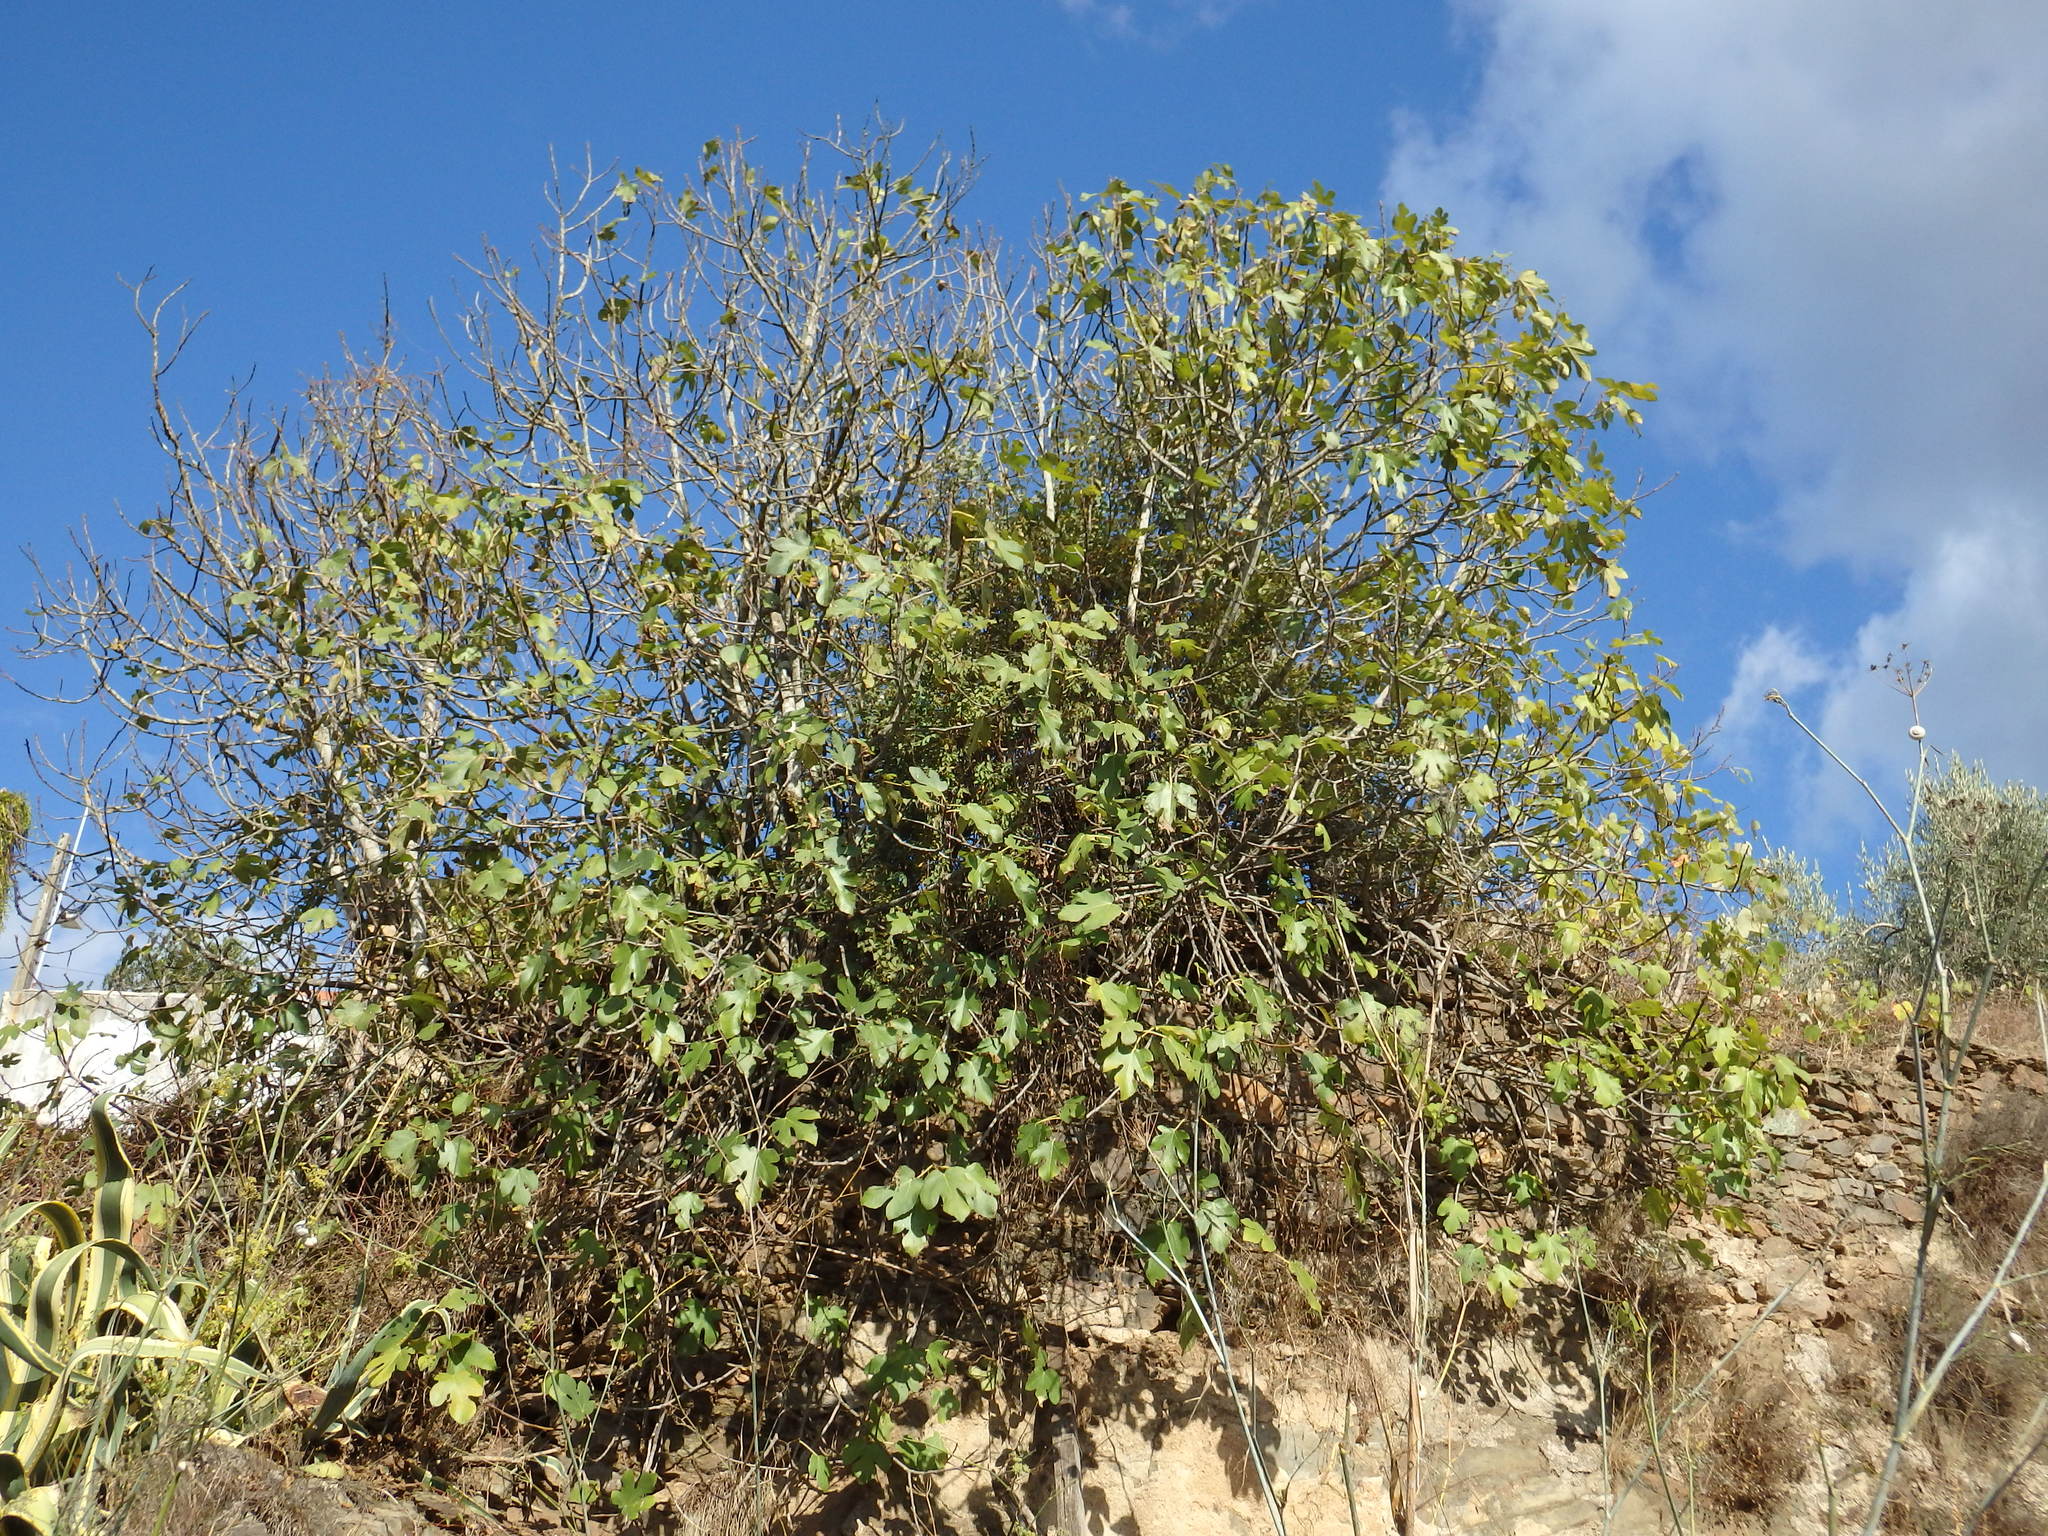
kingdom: Plantae
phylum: Tracheophyta
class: Magnoliopsida
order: Rosales
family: Moraceae
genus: Ficus
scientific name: Ficus carica
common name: Fig
